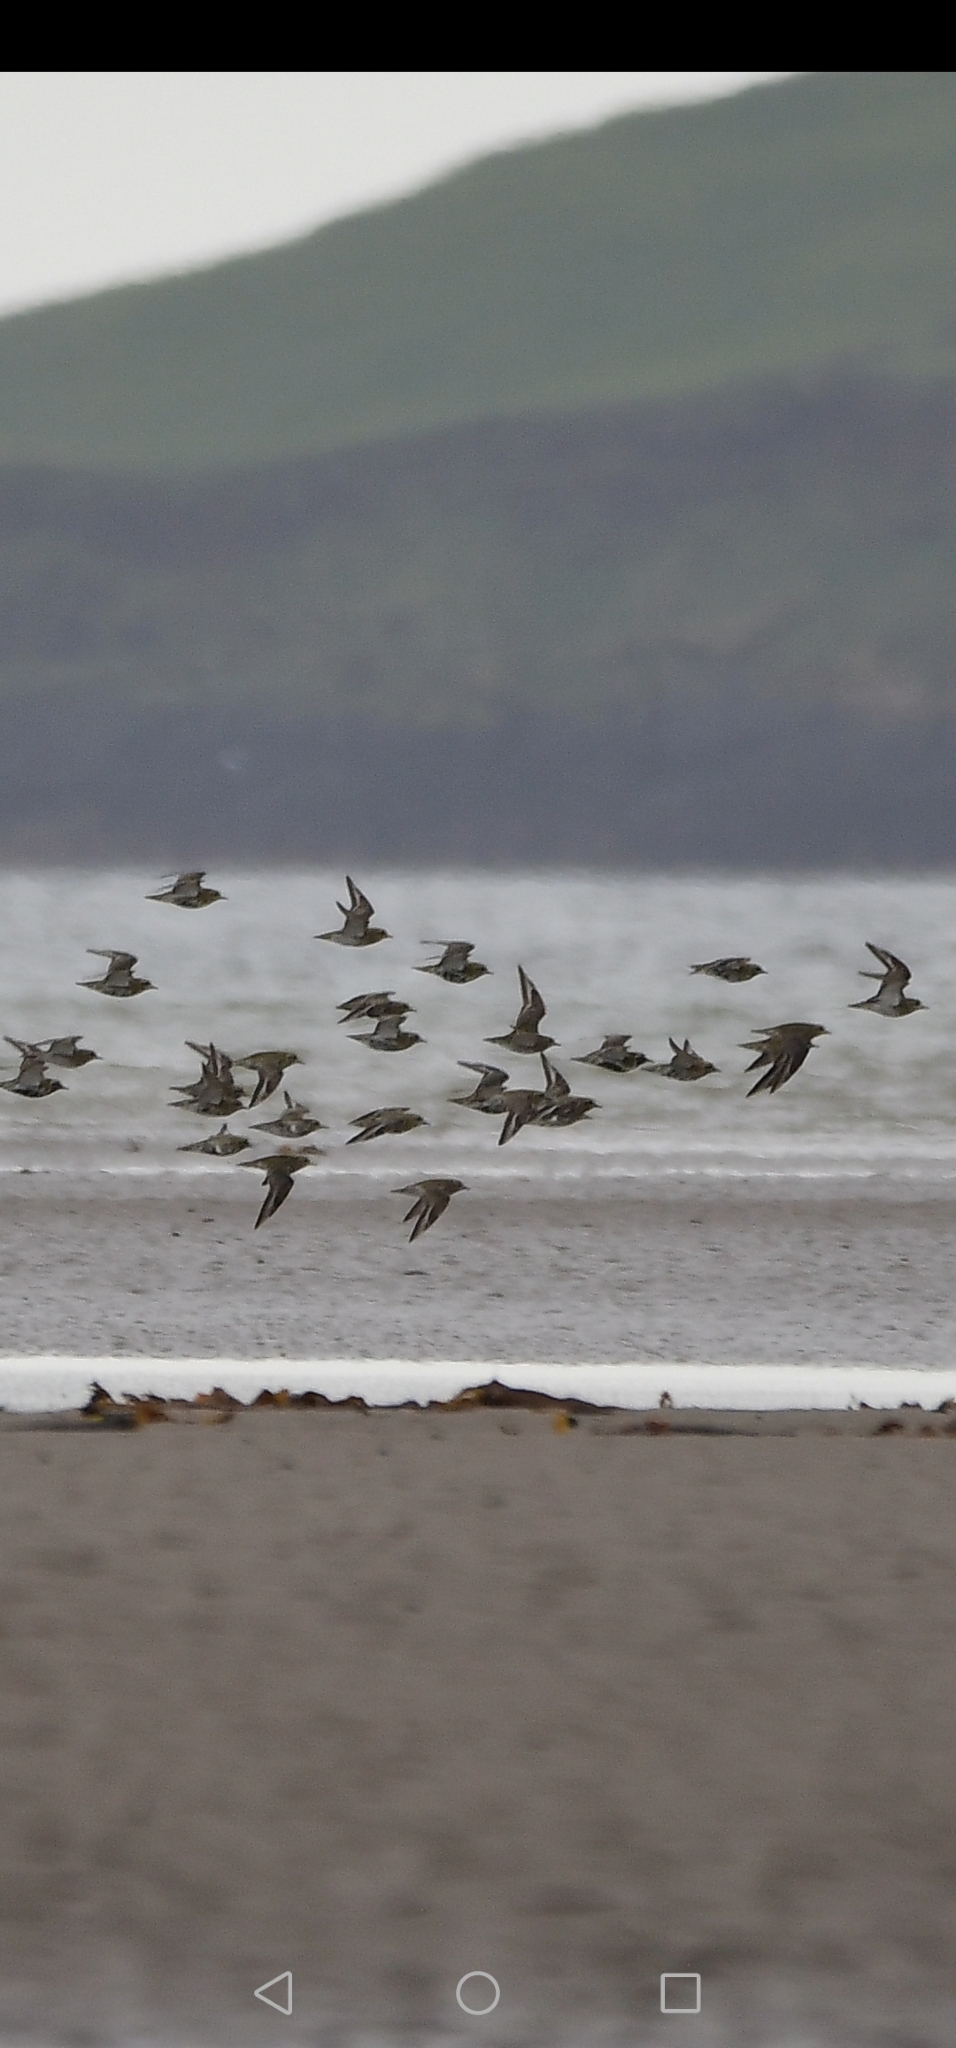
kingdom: Animalia
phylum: Chordata
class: Aves
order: Charadriiformes
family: Charadriidae
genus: Pluvialis
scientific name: Pluvialis apricaria
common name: European golden plover
